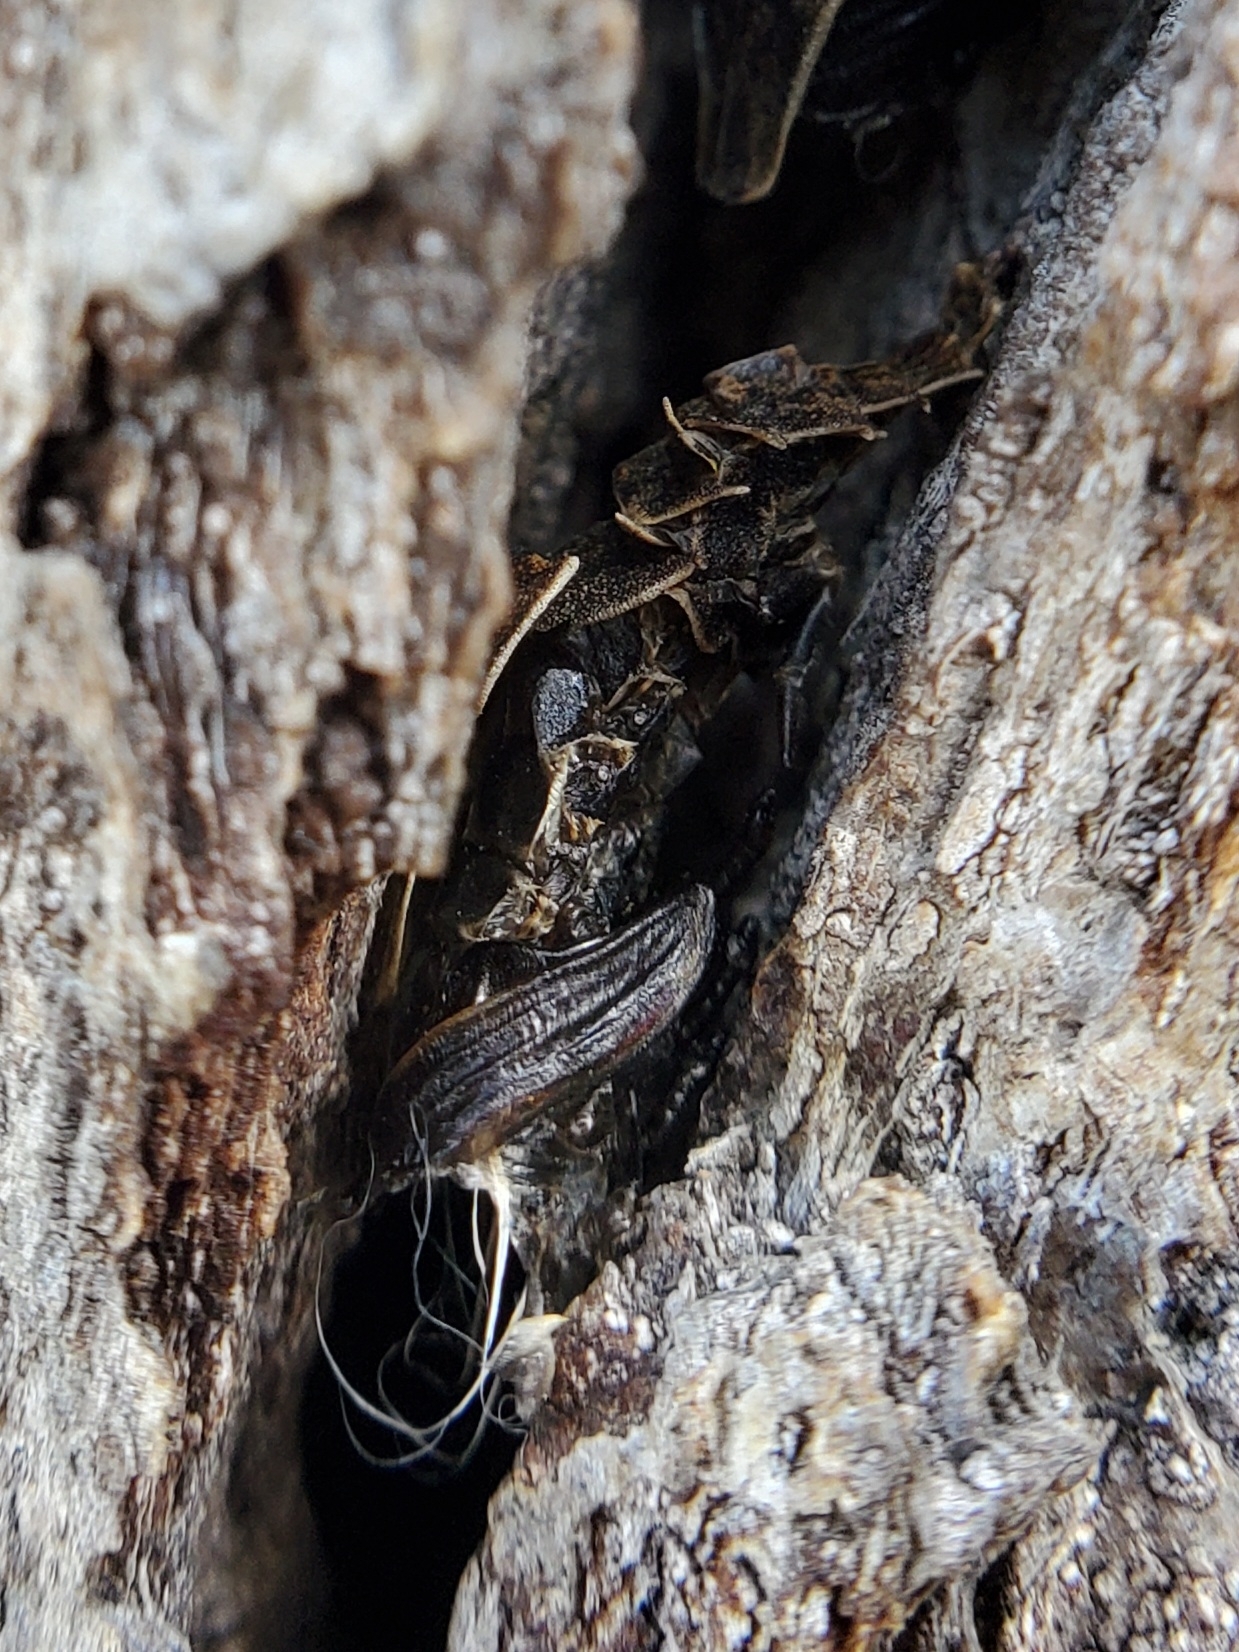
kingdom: Animalia
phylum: Arthropoda
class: Insecta
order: Coleoptera
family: Lampyridae
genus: Pyractomena
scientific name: Pyractomena borealis
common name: Northern firefly
